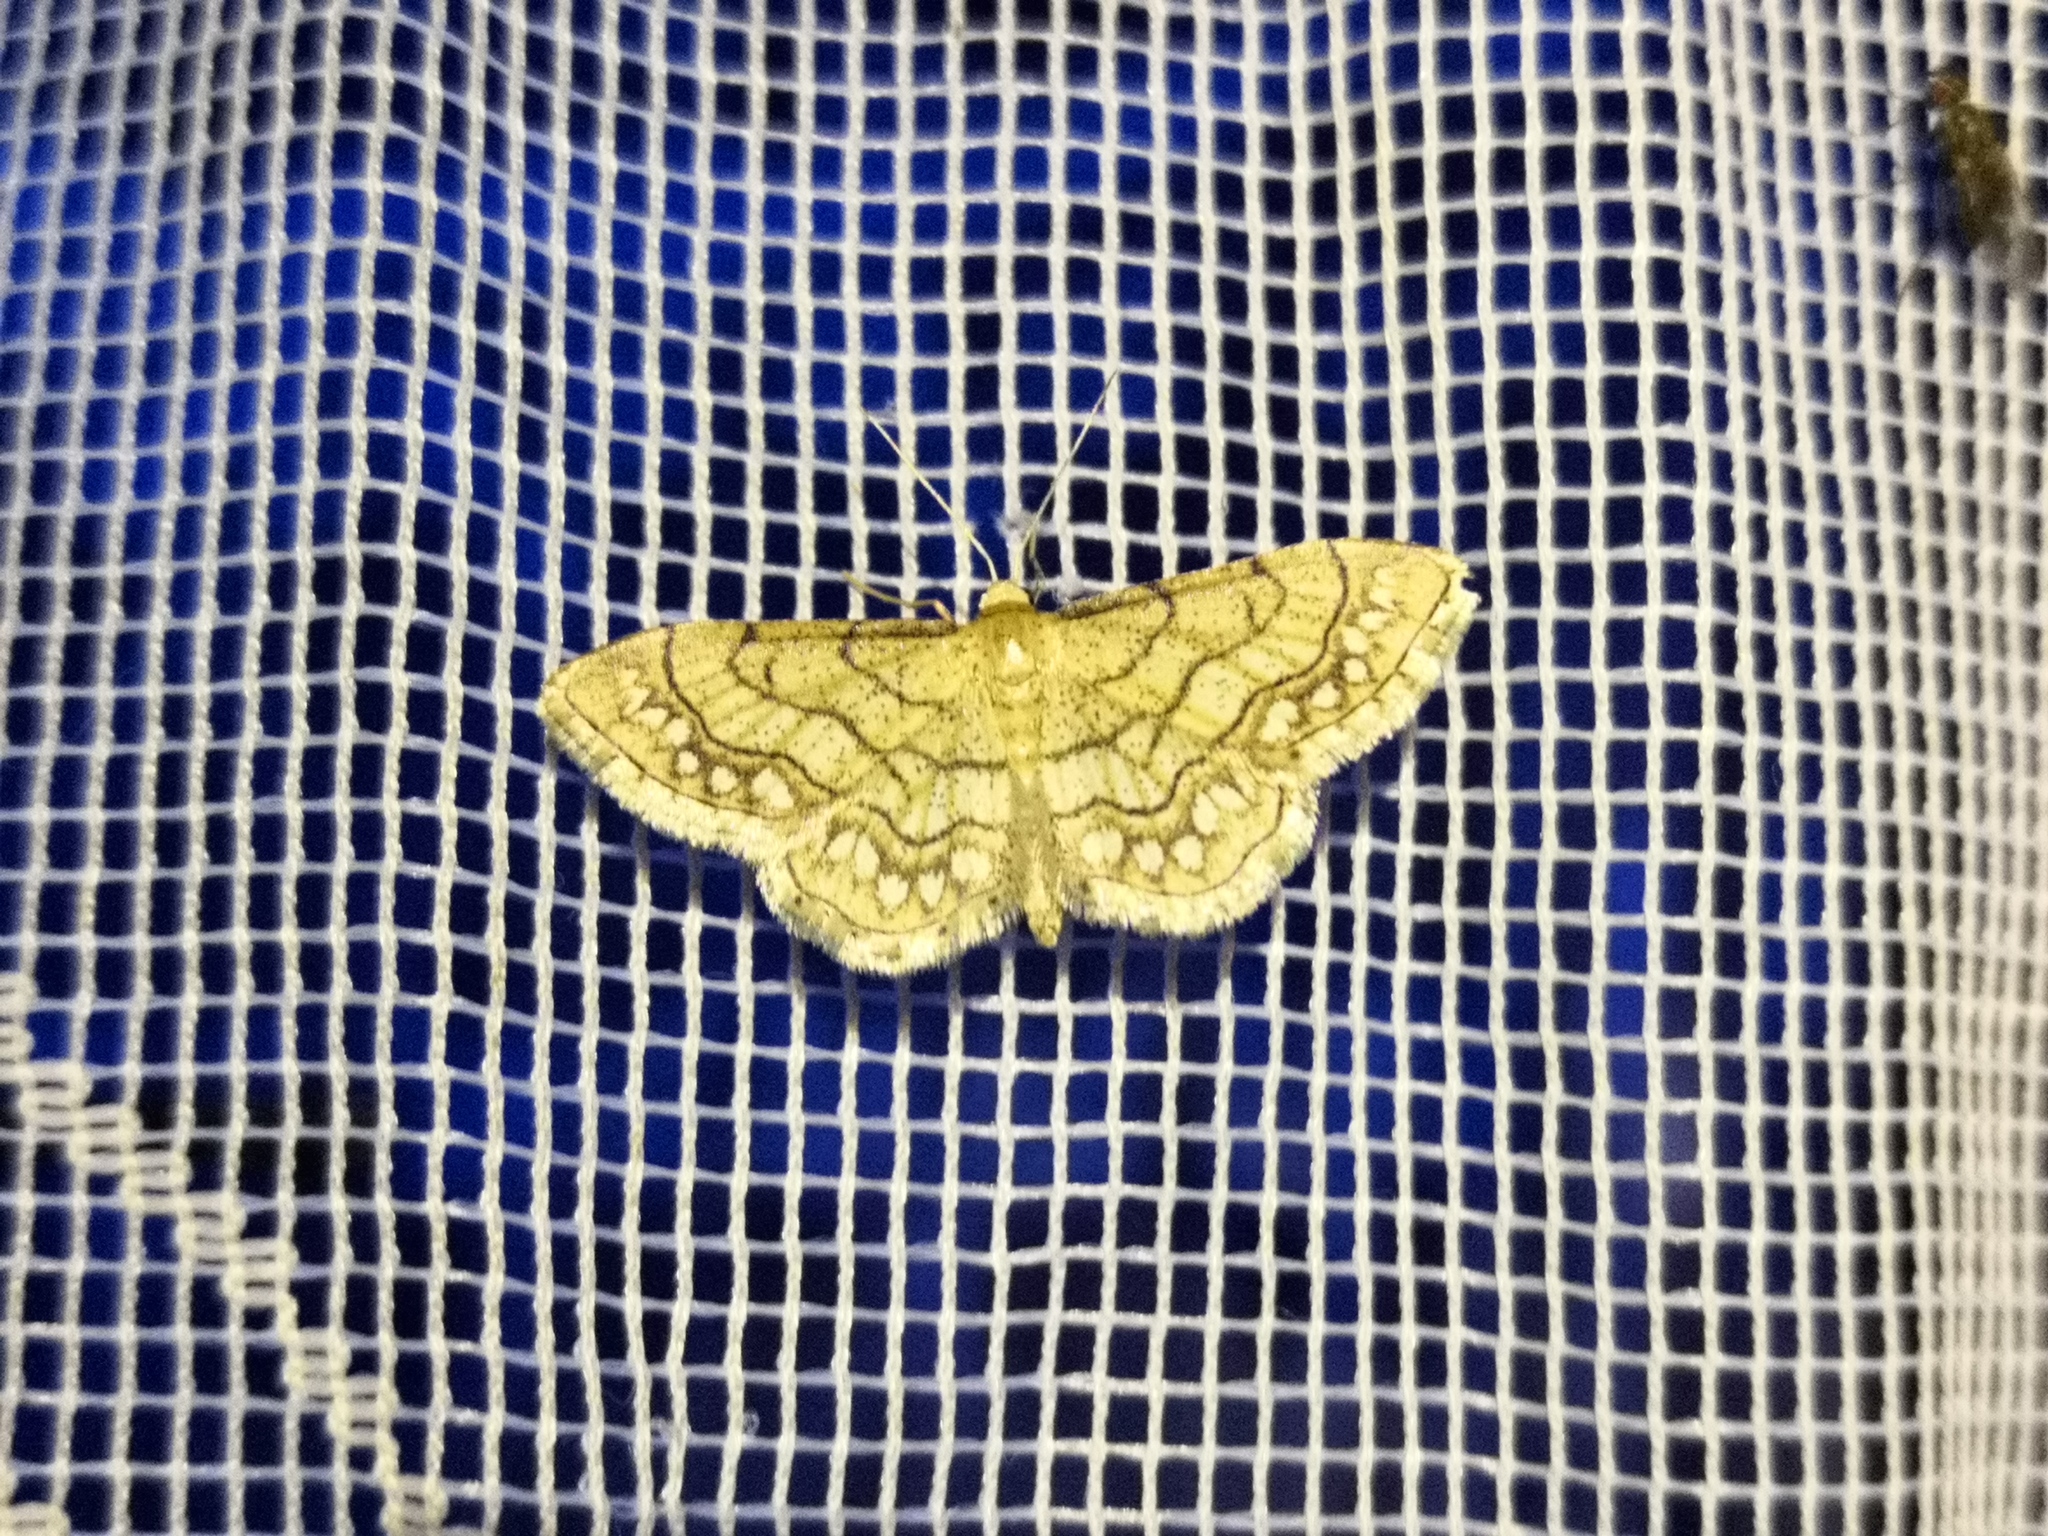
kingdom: Animalia
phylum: Arthropoda
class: Insecta
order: Lepidoptera
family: Geometridae
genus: Idaea
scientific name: Idaea moniliata
